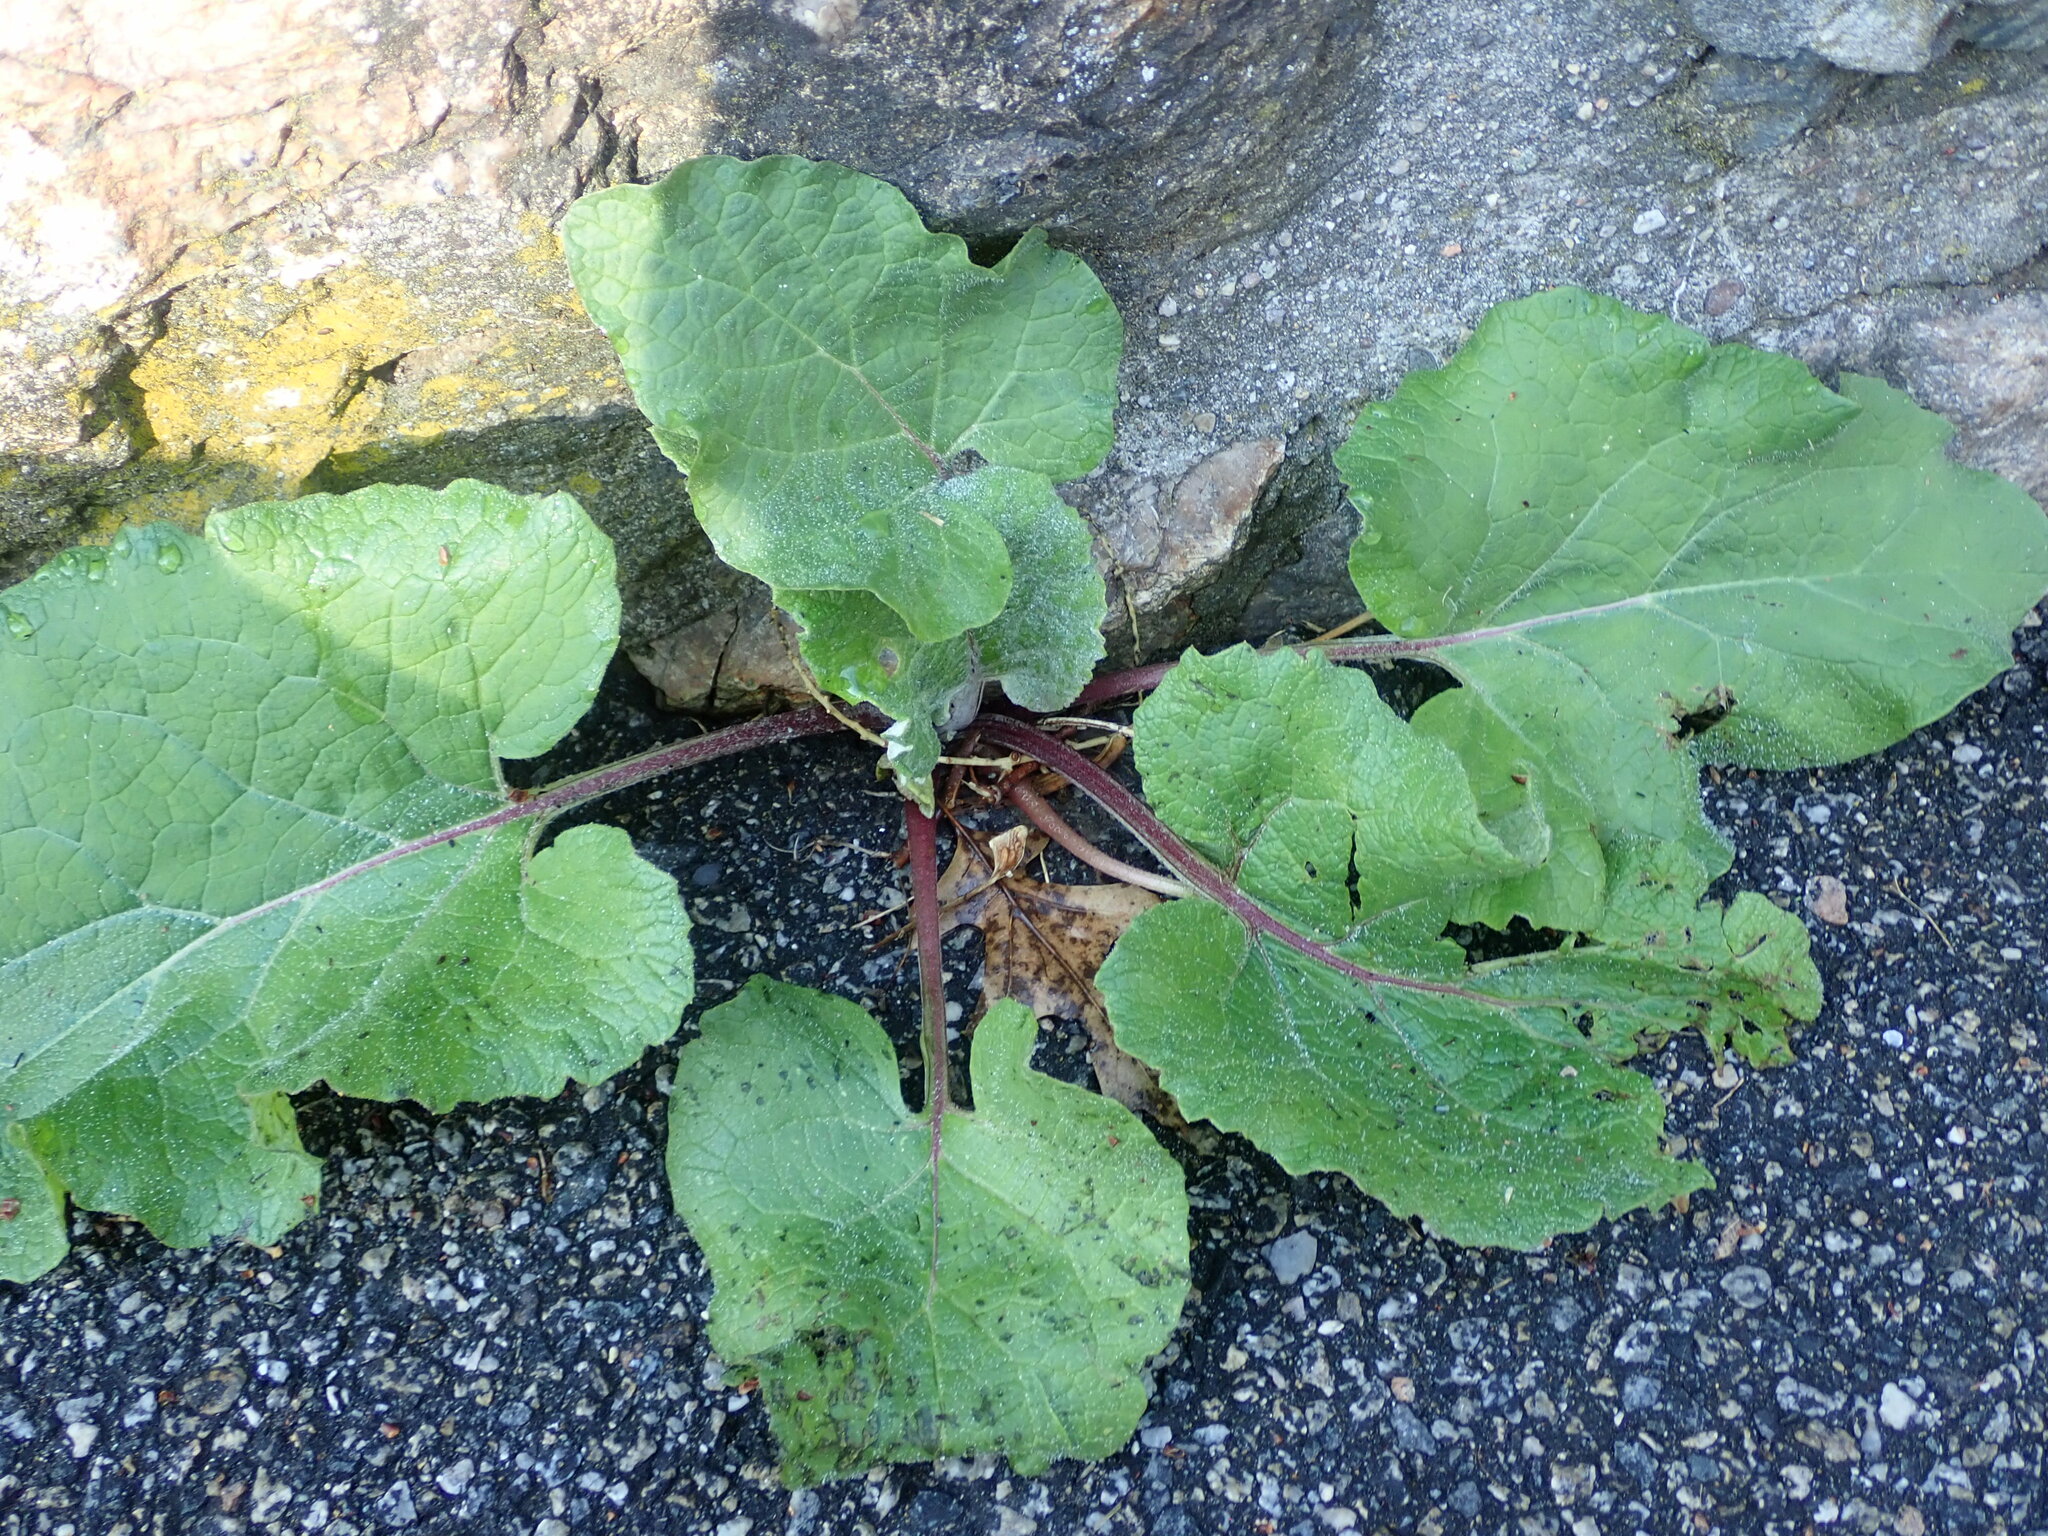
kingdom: Plantae
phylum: Tracheophyta
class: Magnoliopsida
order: Asterales
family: Asteraceae
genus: Arctium
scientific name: Arctium
